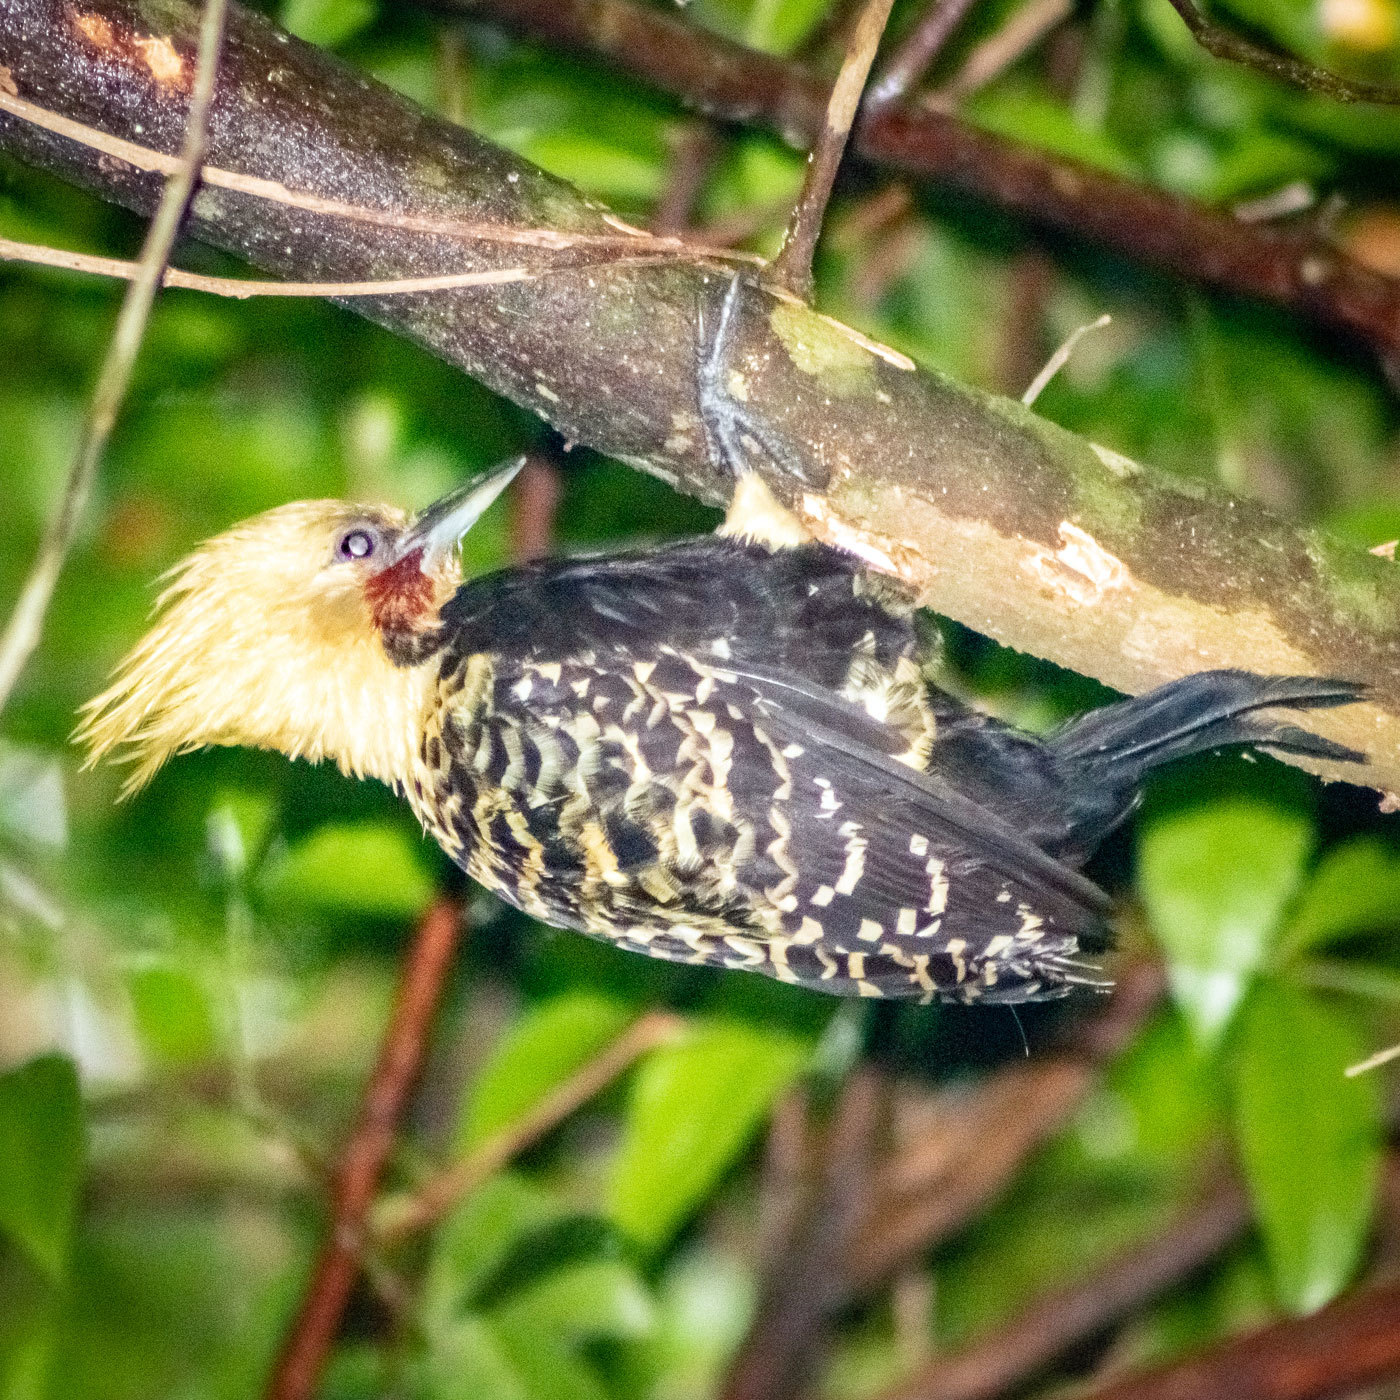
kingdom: Animalia
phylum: Chordata
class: Aves
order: Piciformes
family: Picidae
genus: Celeus
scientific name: Celeus flavescens
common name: Blond-crested woodpecker
